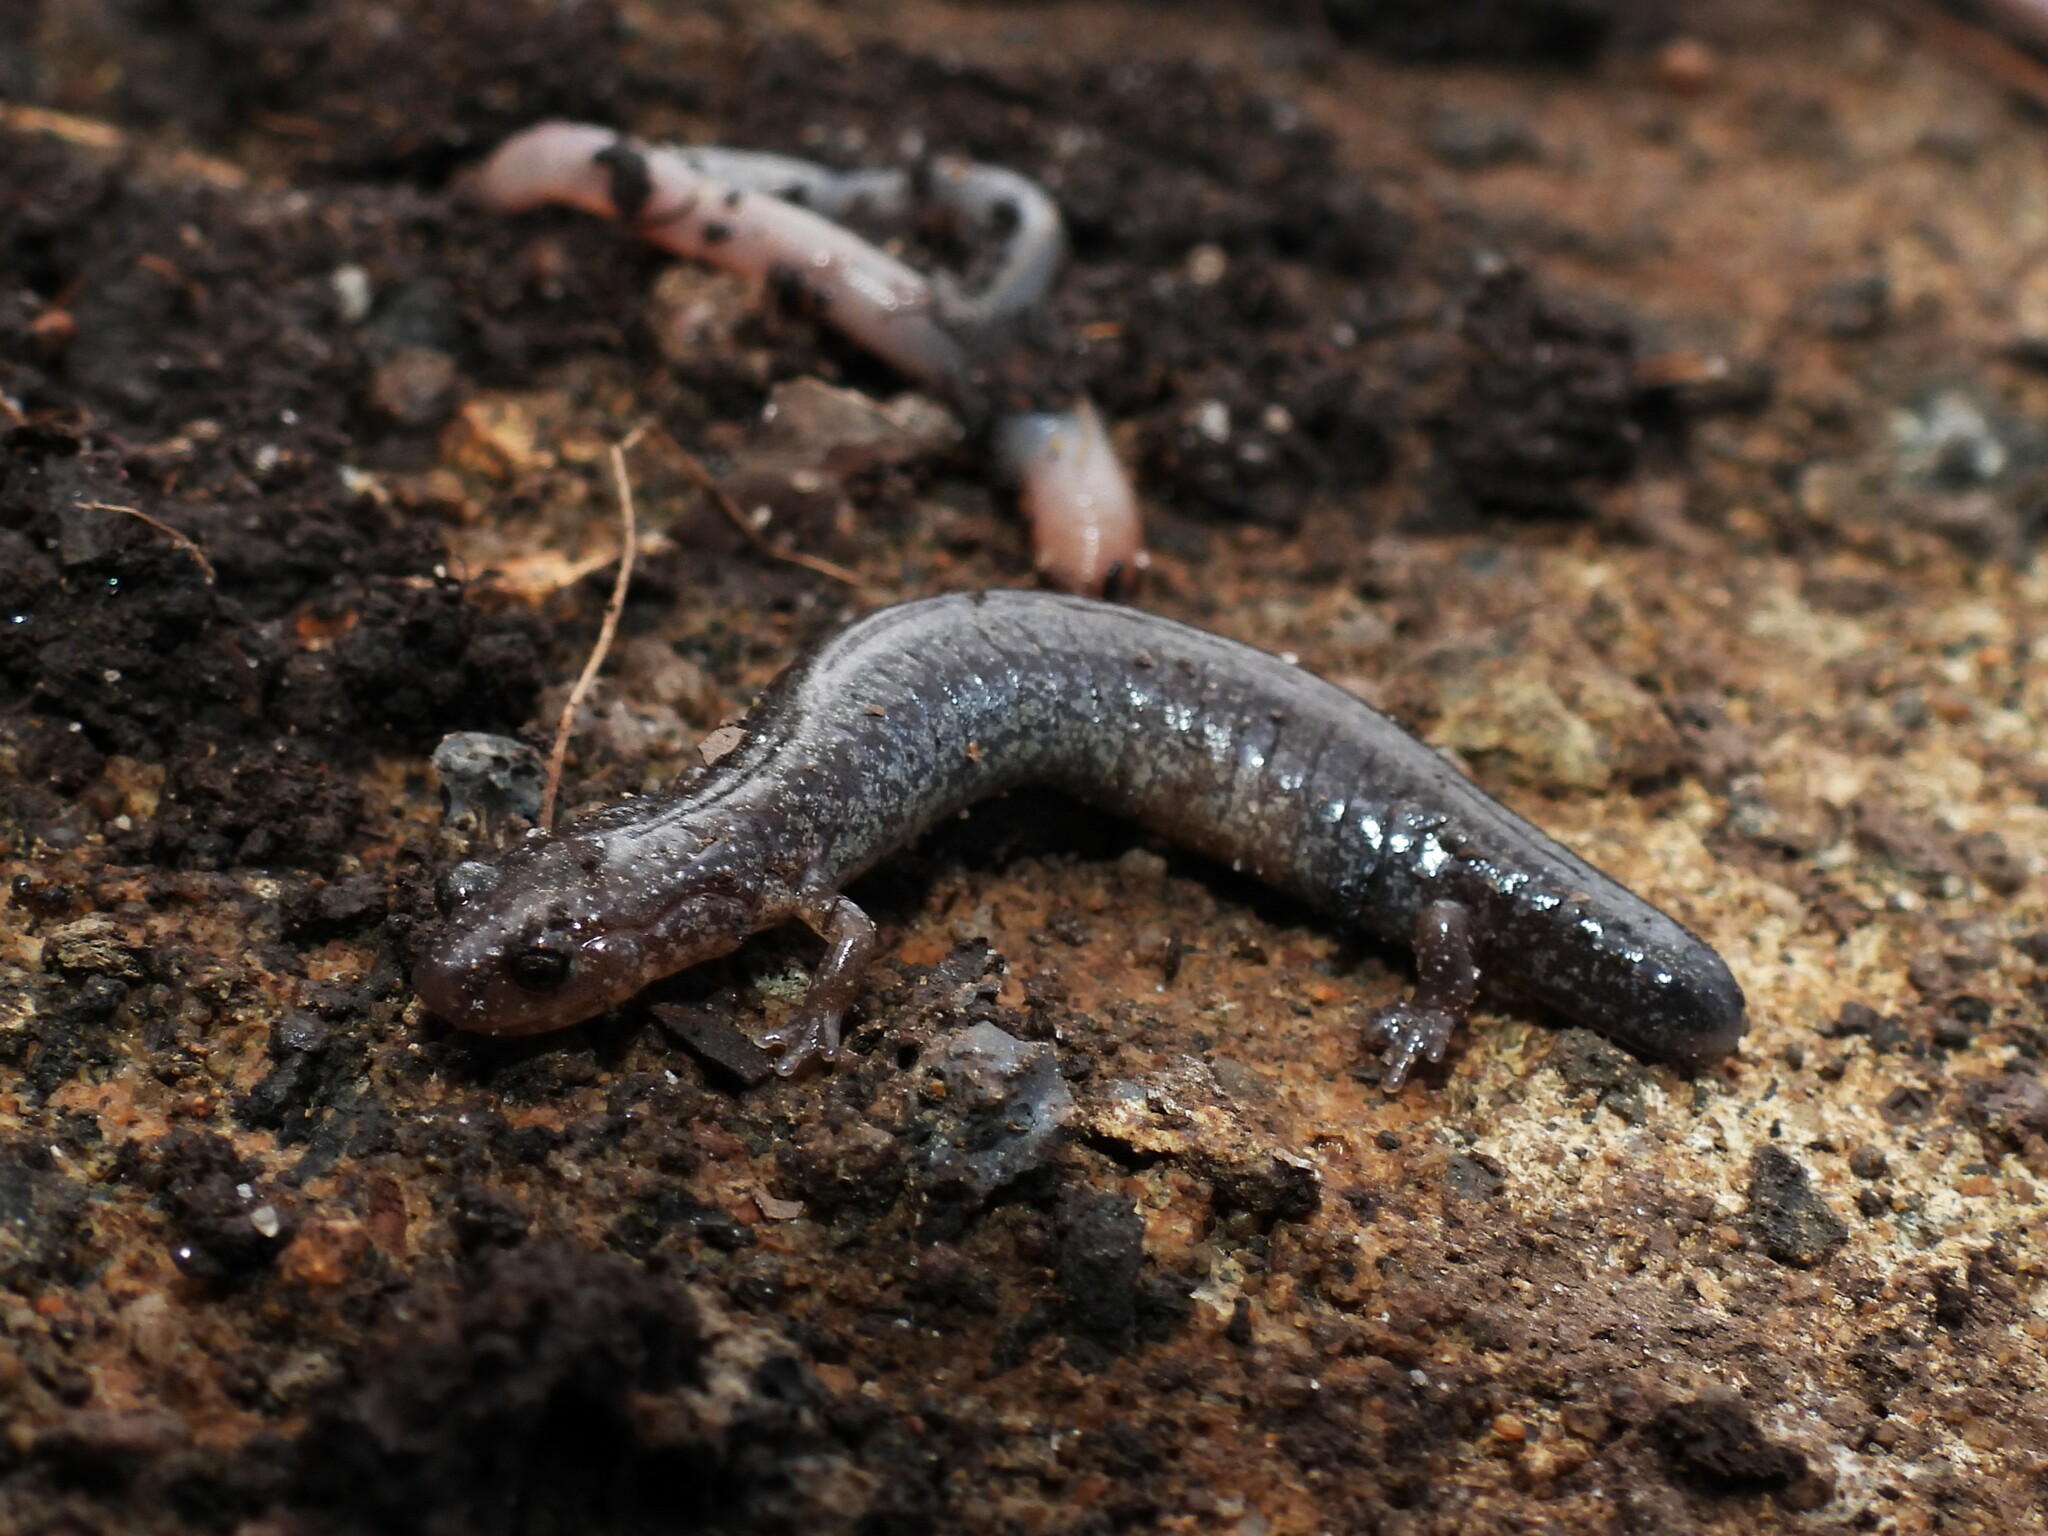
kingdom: Animalia
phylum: Chordata
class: Amphibia
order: Caudata
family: Plethodontidae
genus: Plethodon
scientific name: Plethodon cinereus
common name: Redback salamander
